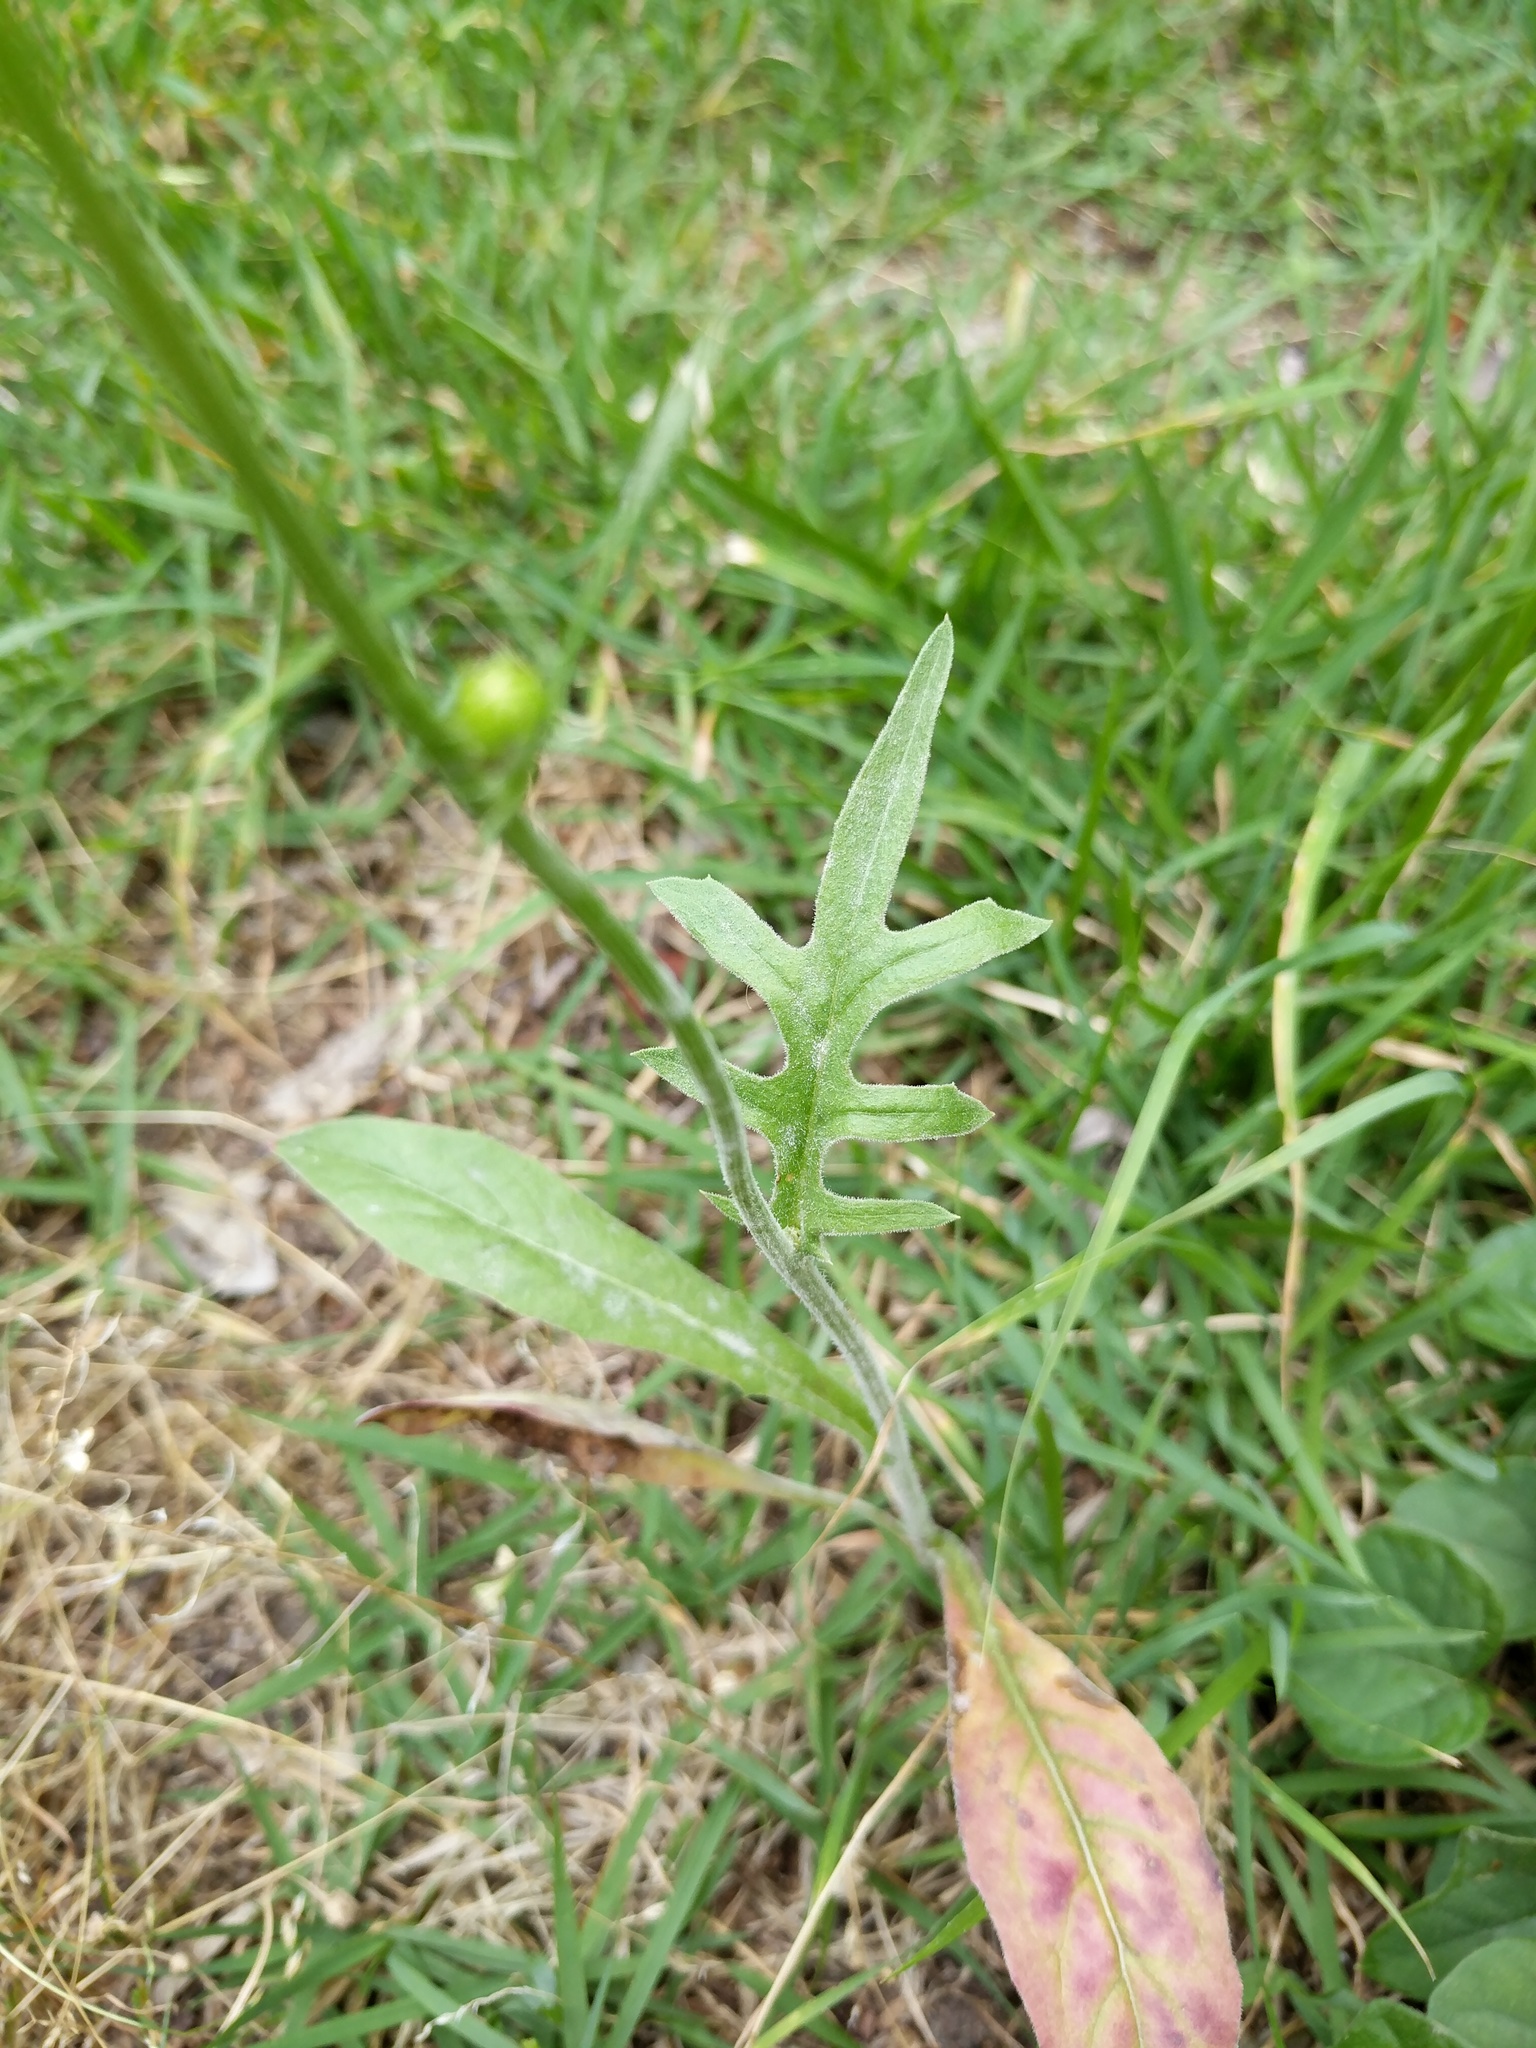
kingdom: Plantae
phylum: Tracheophyta
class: Magnoliopsida
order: Asterales
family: Asteraceae
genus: Pyrrhopappus
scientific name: Pyrrhopappus pauciflorus
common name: Texas false dandelion
